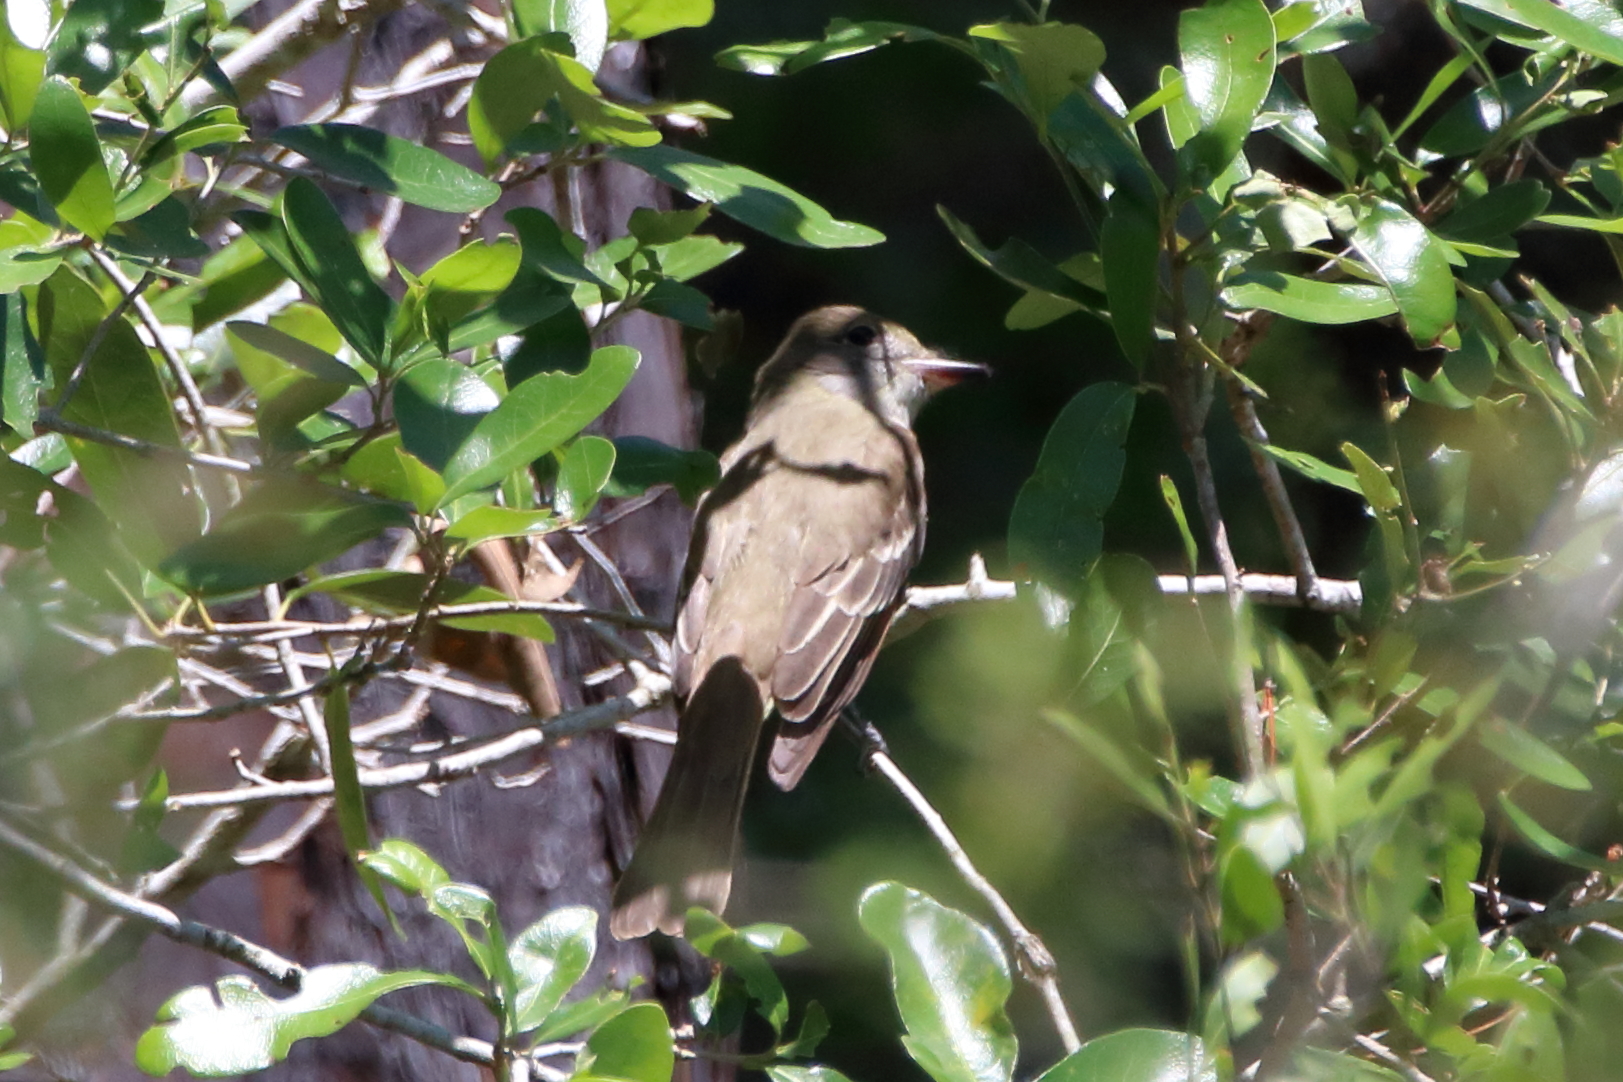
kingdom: Animalia
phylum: Chordata
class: Aves
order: Passeriformes
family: Tyrannidae
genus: Myiarchus
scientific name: Myiarchus crinitus
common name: Great crested flycatcher
